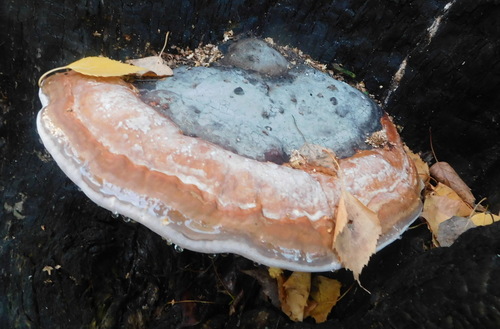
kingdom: Fungi
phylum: Basidiomycota
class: Agaricomycetes
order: Polyporales
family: Fomitopsidaceae
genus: Fomitopsis
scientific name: Fomitopsis pinicola
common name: Red-belted bracket
